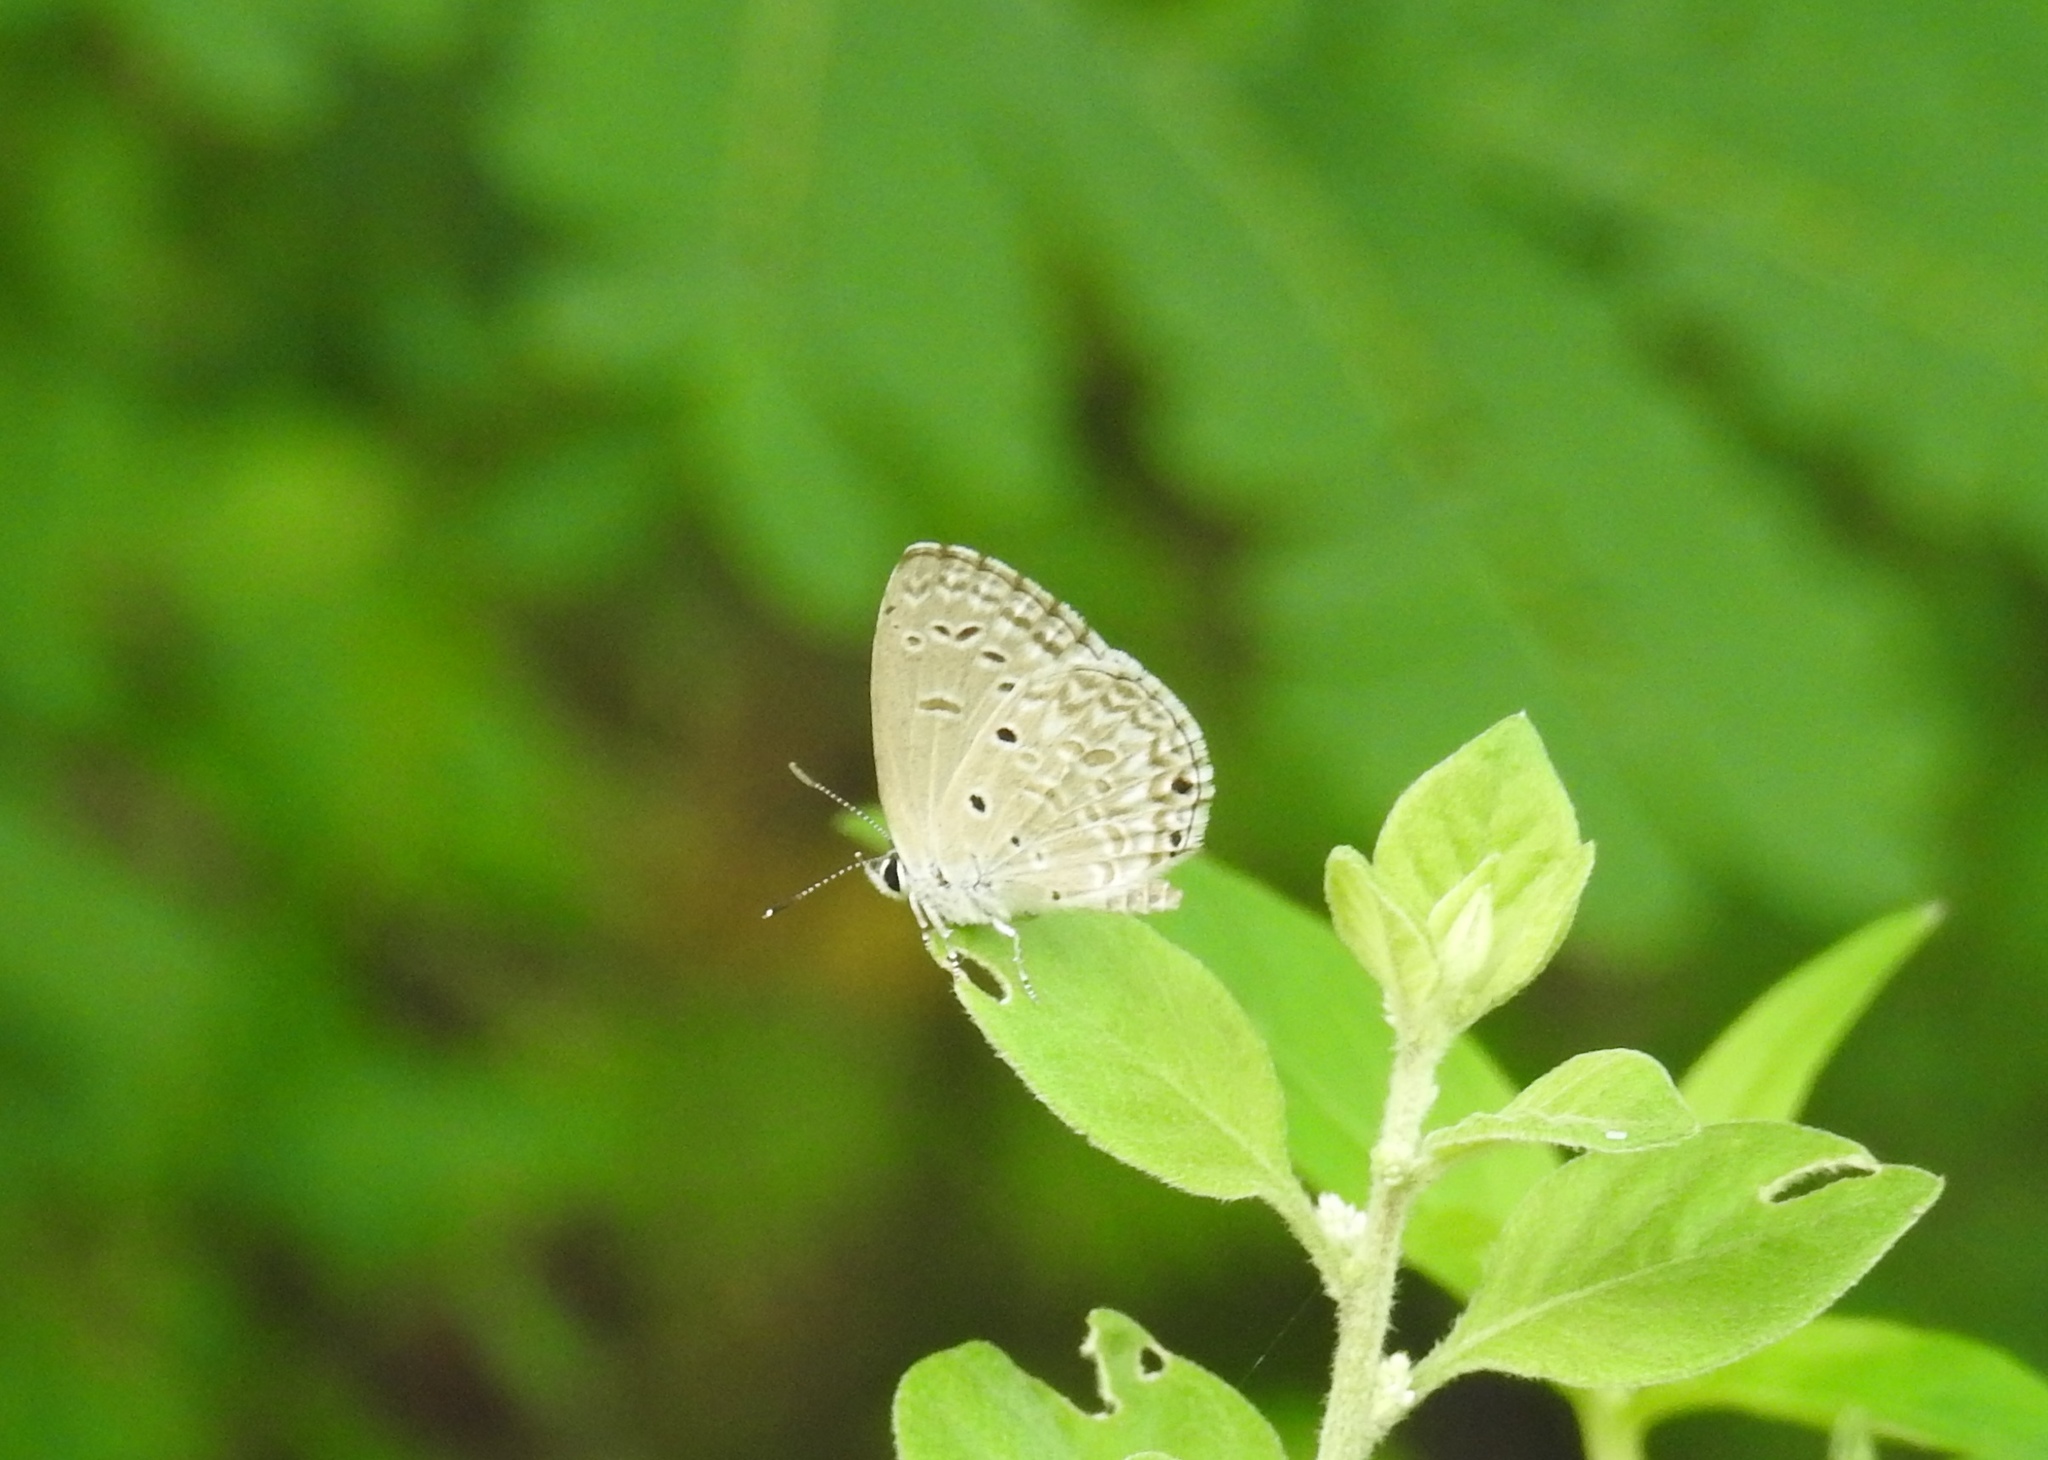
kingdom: Animalia
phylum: Arthropoda
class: Insecta
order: Lepidoptera
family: Lycaenidae
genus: Chilades
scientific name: Chilades laius
